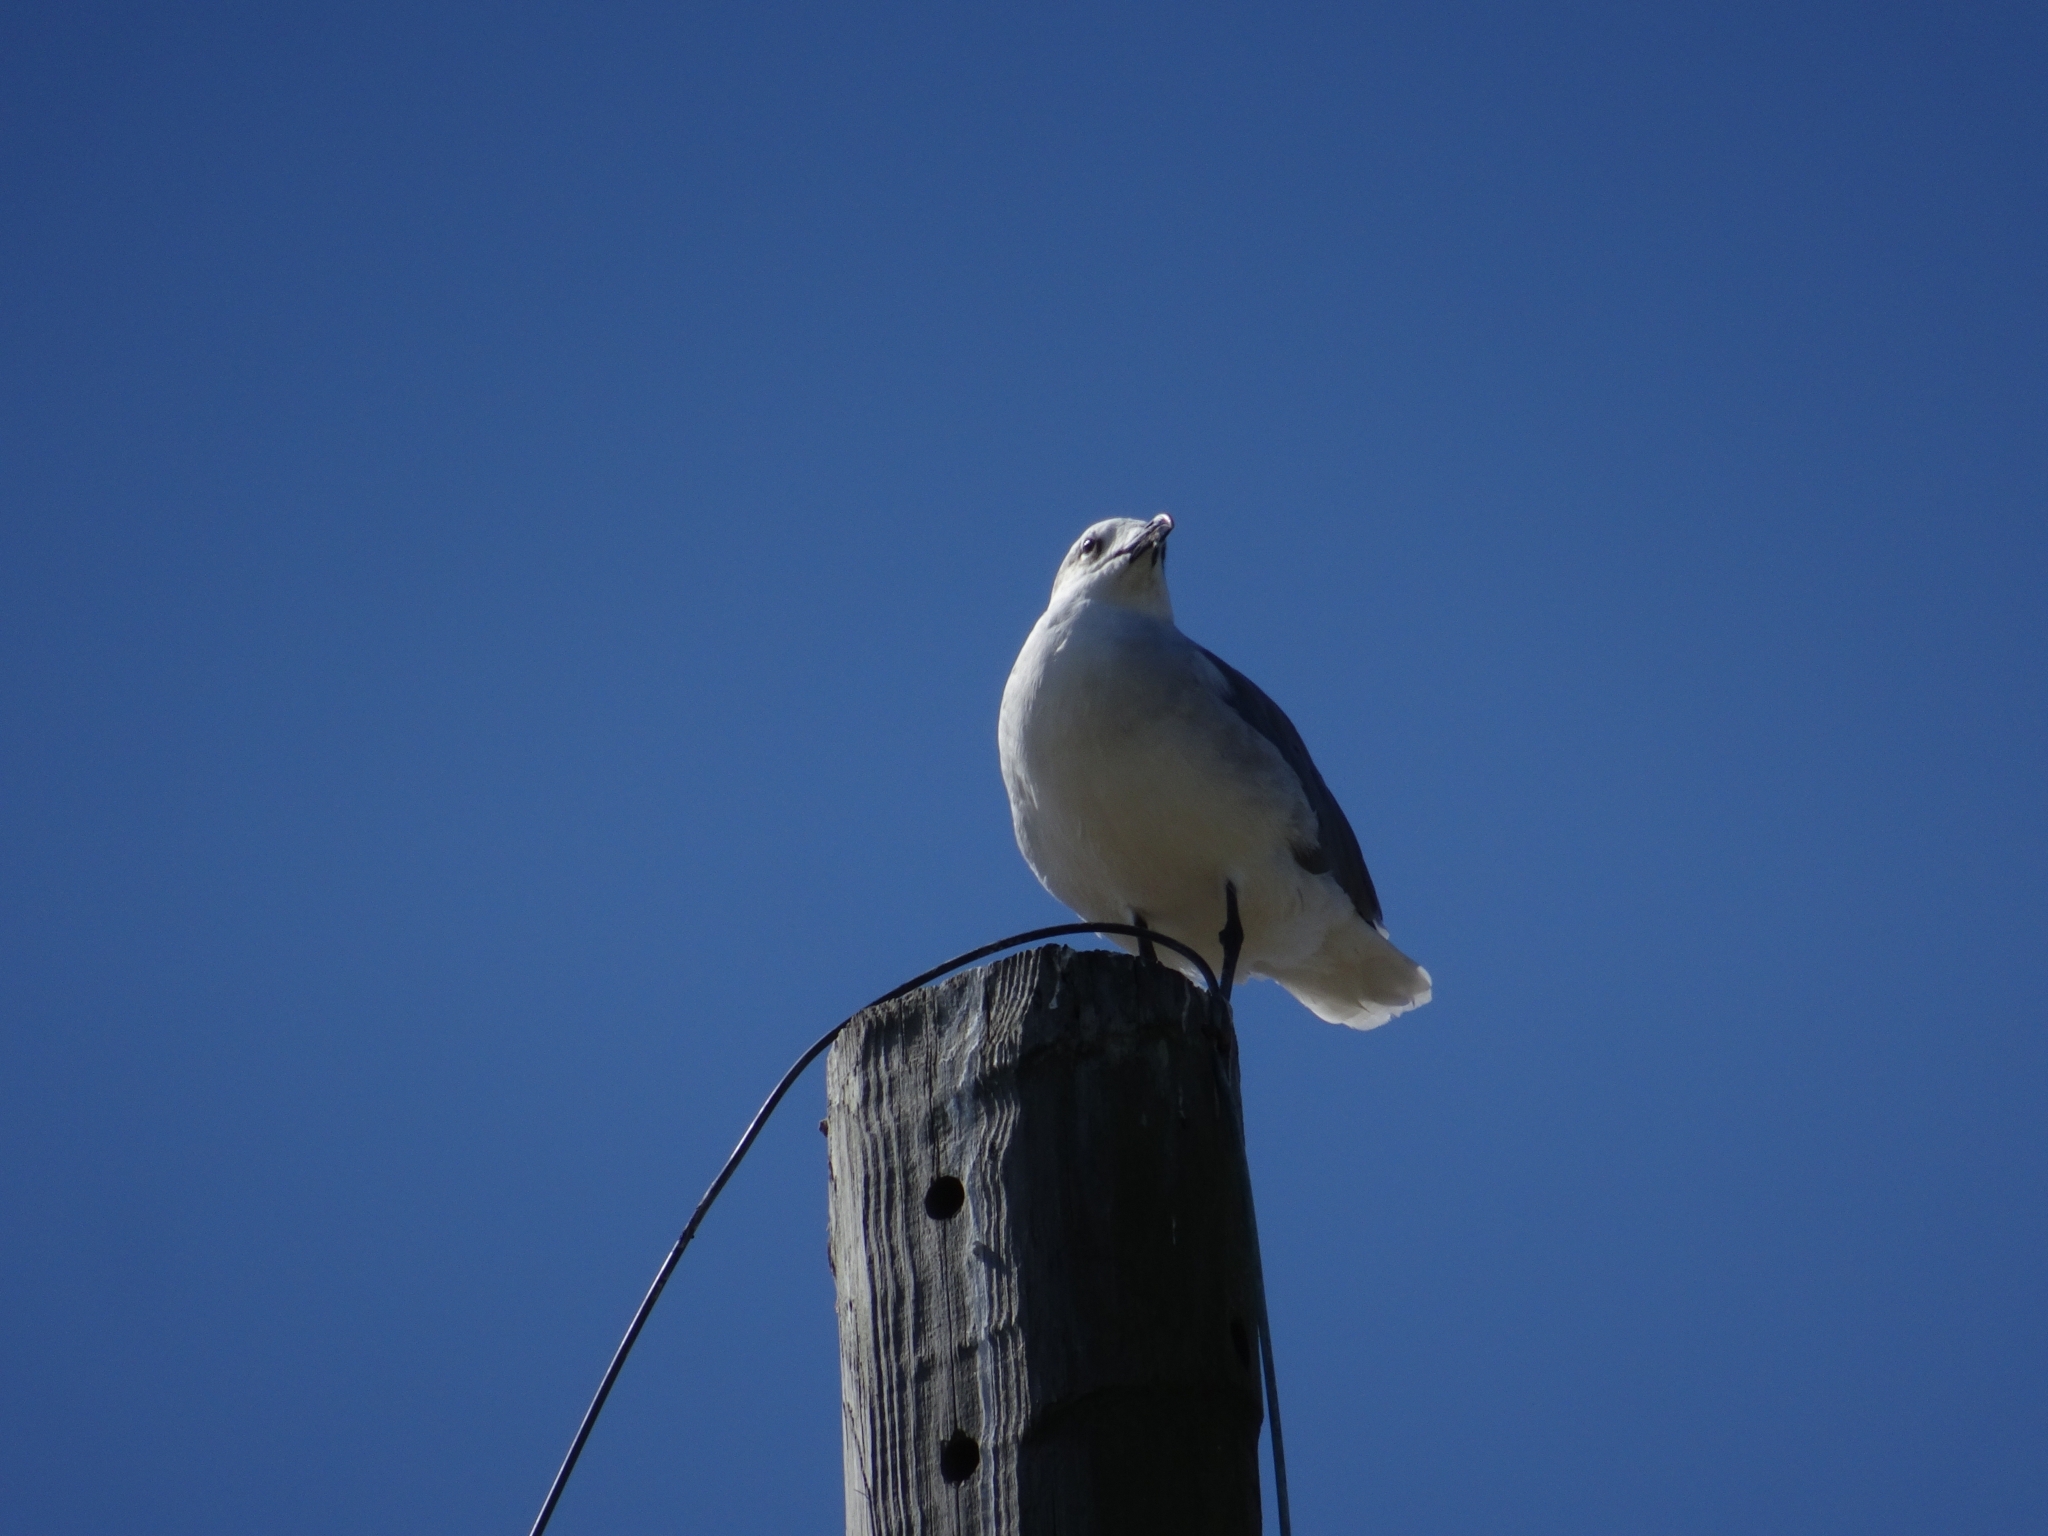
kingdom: Animalia
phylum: Chordata
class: Aves
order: Charadriiformes
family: Laridae
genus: Leucophaeus
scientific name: Leucophaeus atricilla
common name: Laughing gull
